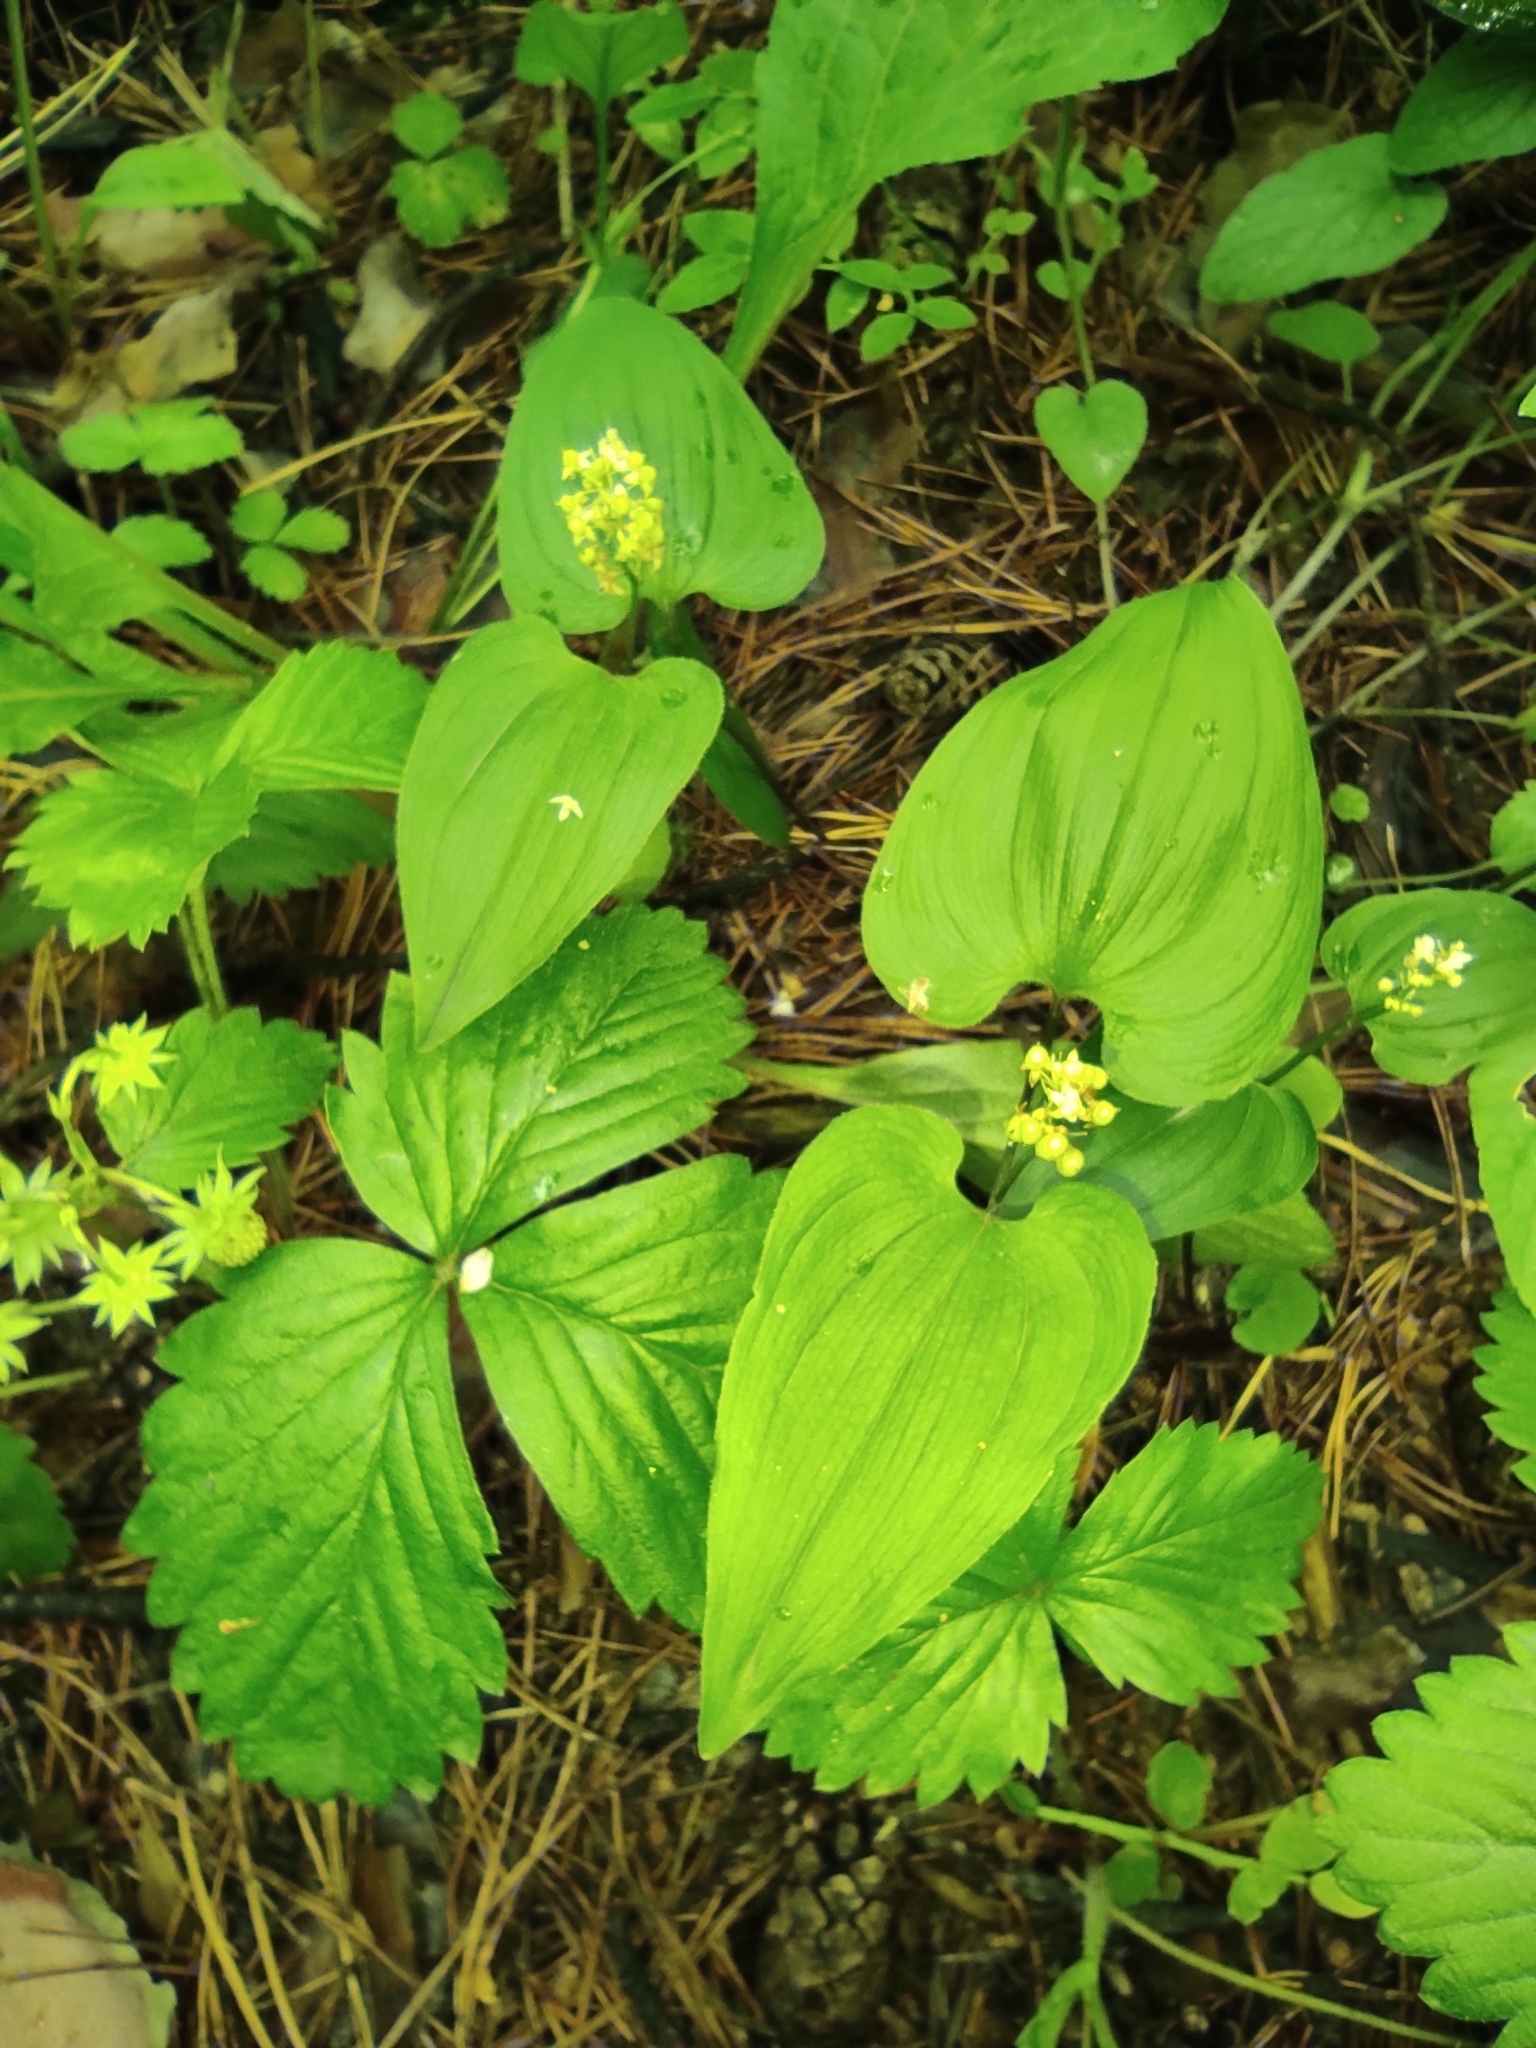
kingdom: Plantae
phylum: Tracheophyta
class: Liliopsida
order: Asparagales
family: Asparagaceae
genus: Maianthemum
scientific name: Maianthemum bifolium
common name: May lily
